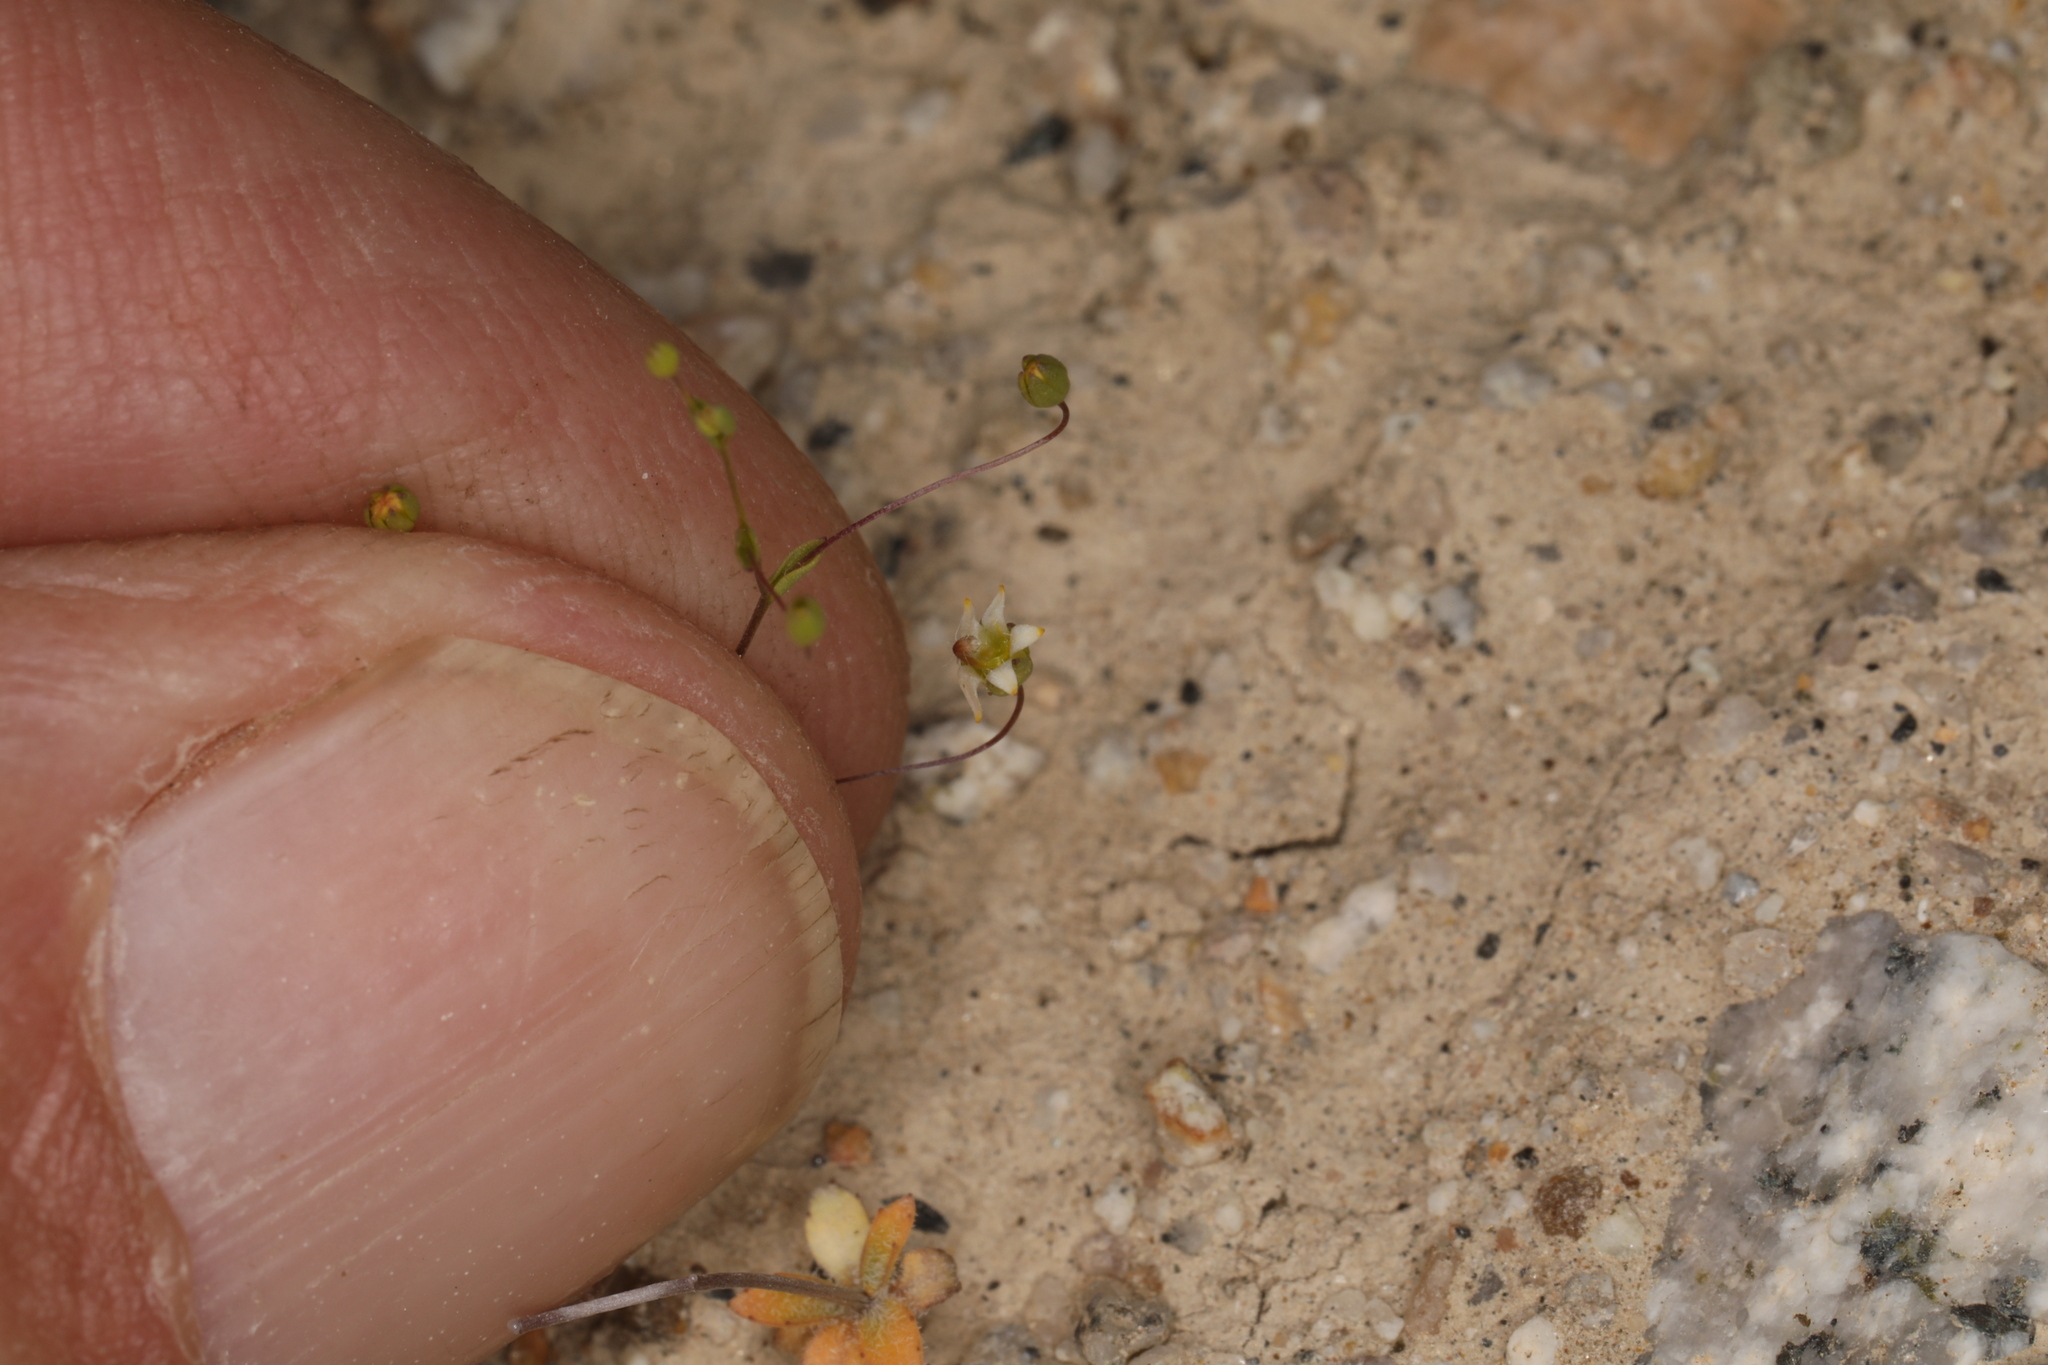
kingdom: Plantae
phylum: Tracheophyta
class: Magnoliopsida
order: Asterales
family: Campanulaceae
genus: Nemacladus
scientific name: Nemacladus eastwoodiae
